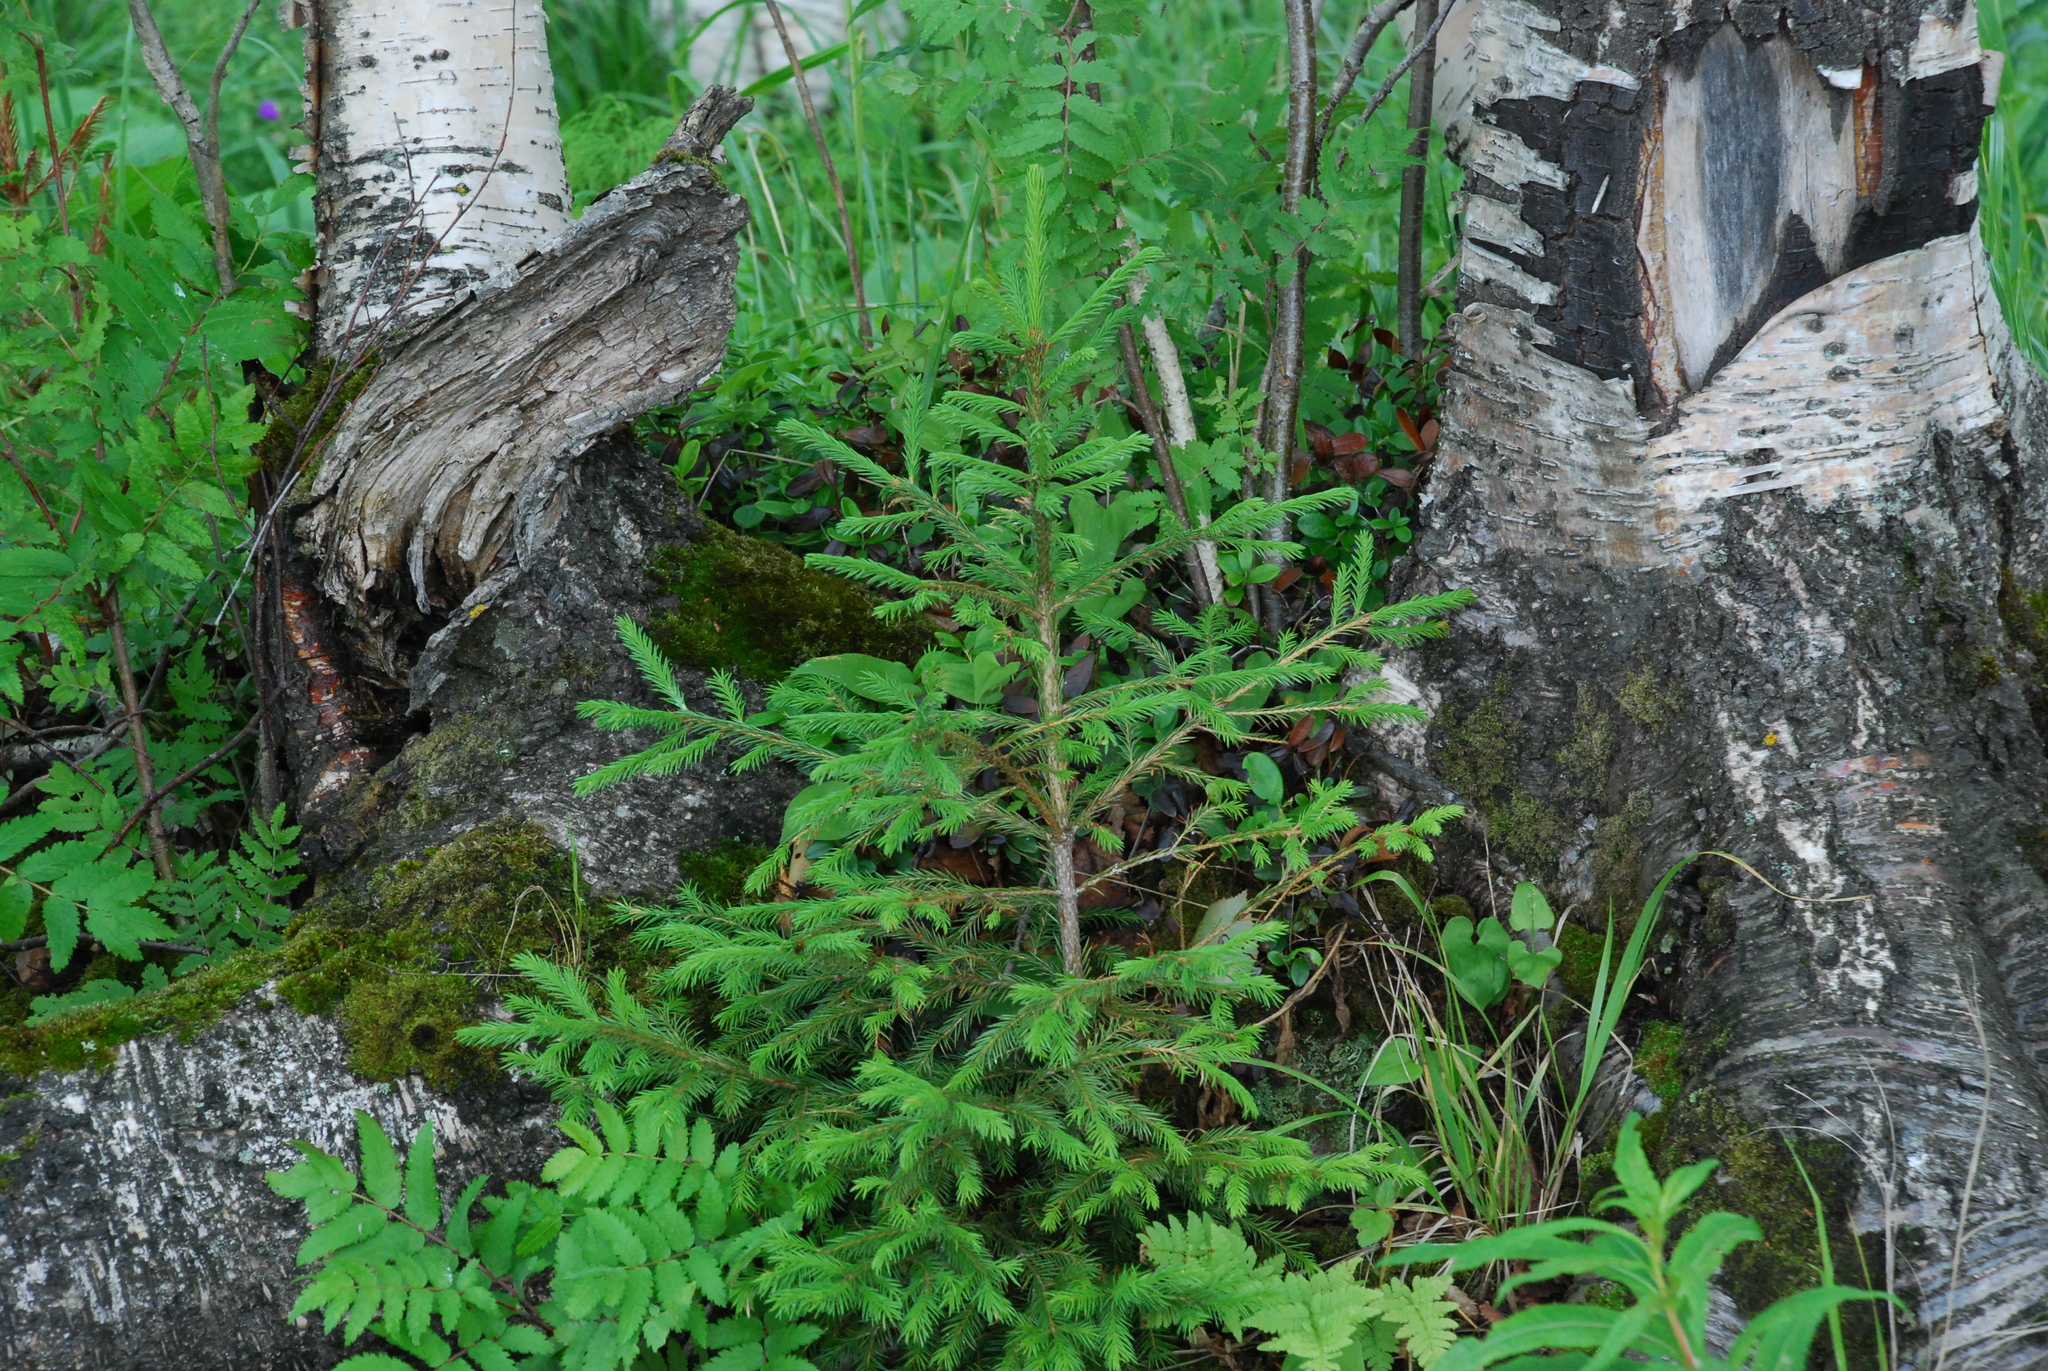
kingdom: Plantae
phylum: Tracheophyta
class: Pinopsida
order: Pinales
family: Pinaceae
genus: Picea
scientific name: Picea obovata
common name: Siberian spruce
